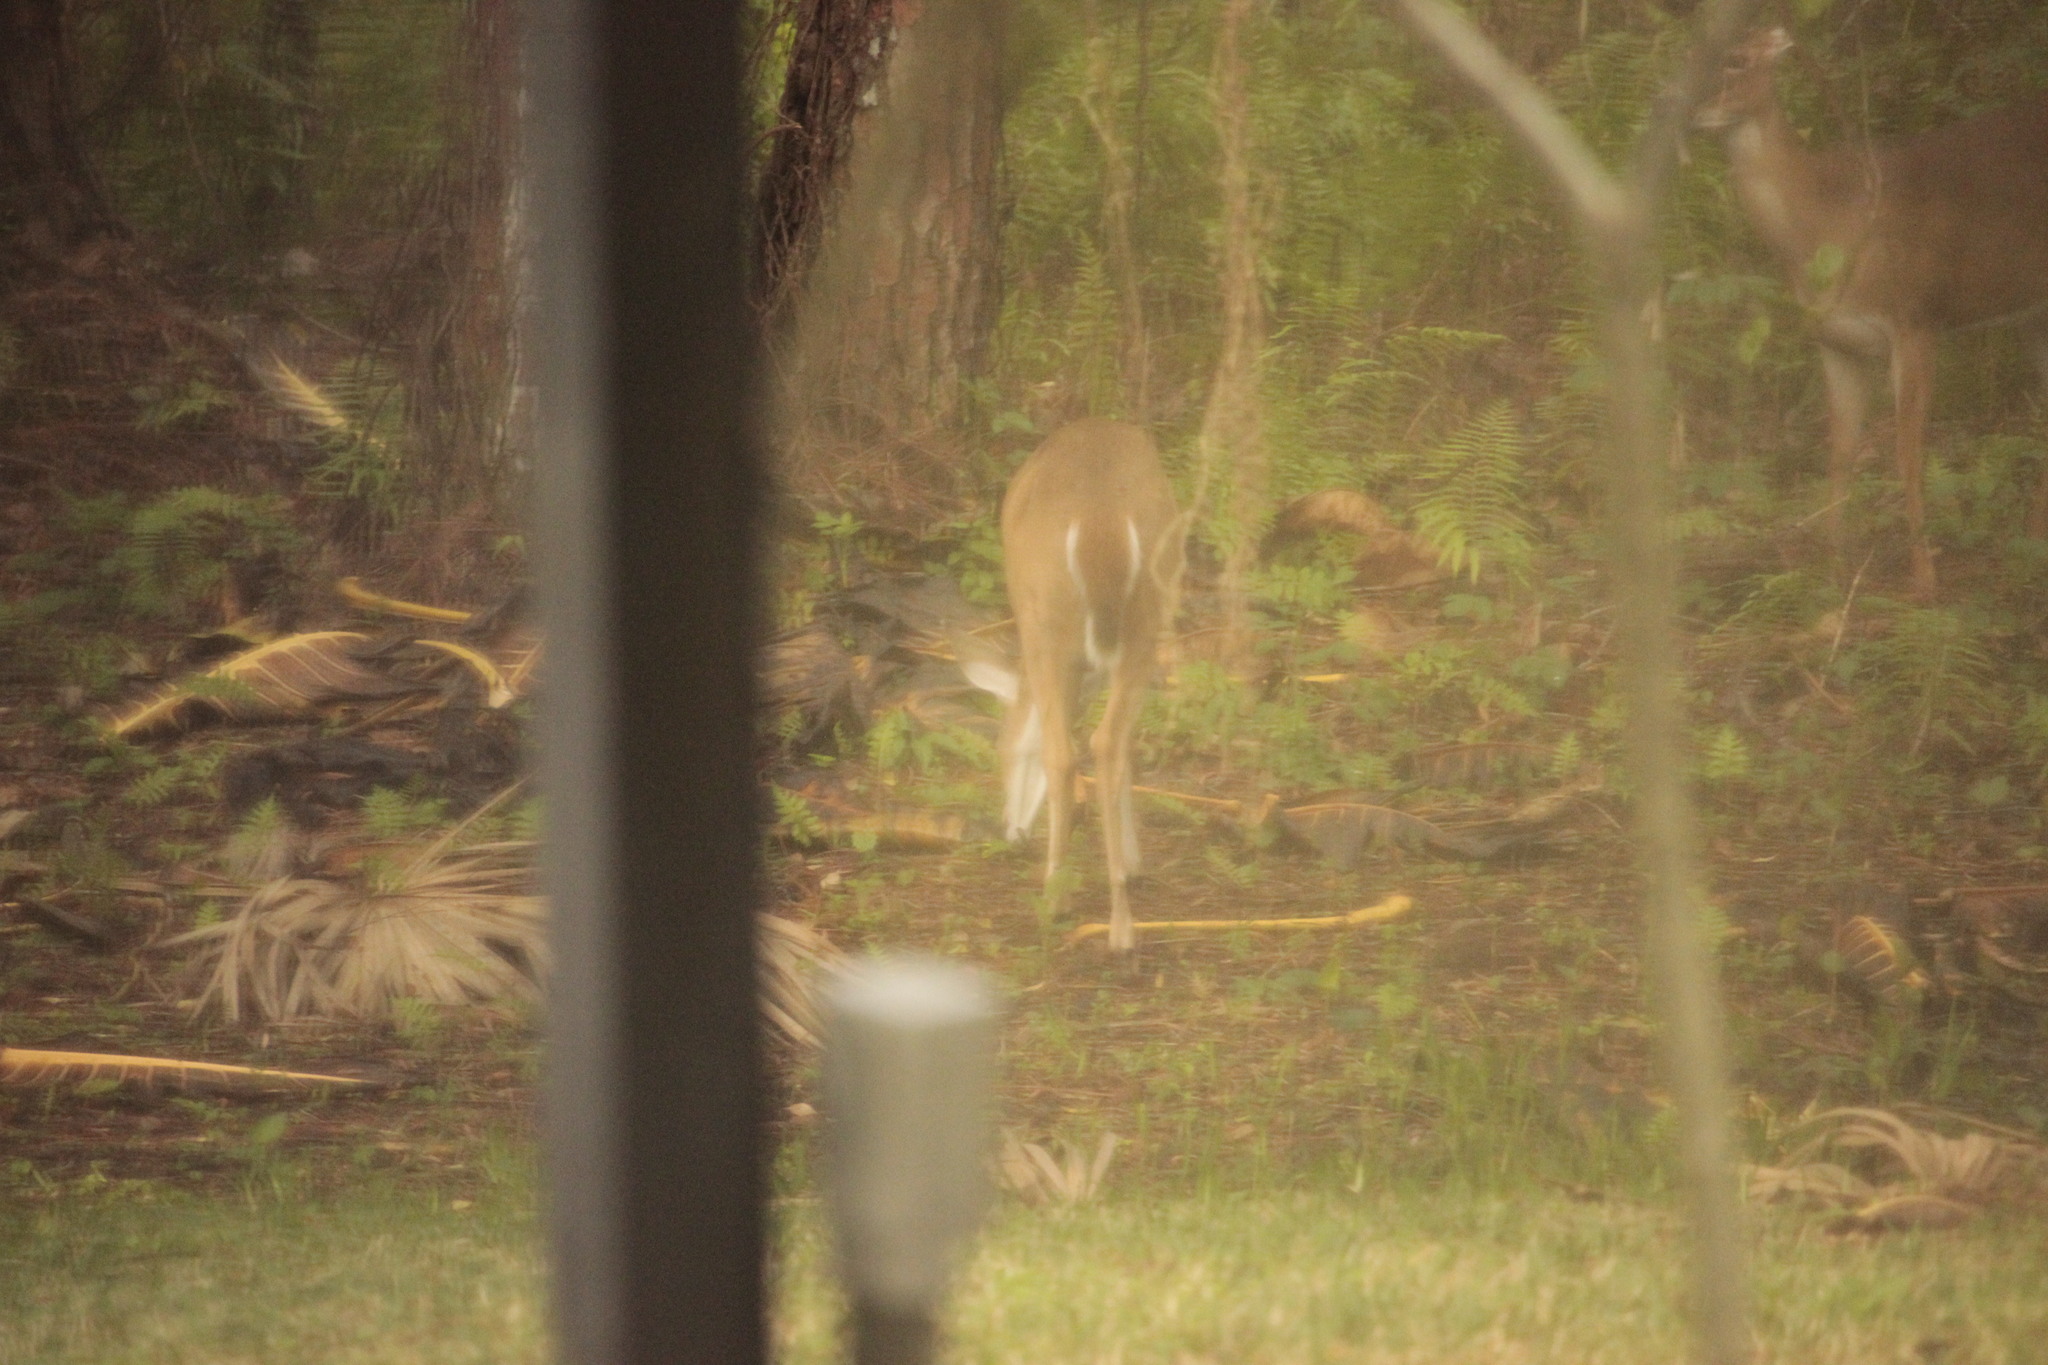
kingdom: Animalia
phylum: Chordata
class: Mammalia
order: Artiodactyla
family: Cervidae
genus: Odocoileus
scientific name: Odocoileus virginianus
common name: White-tailed deer
